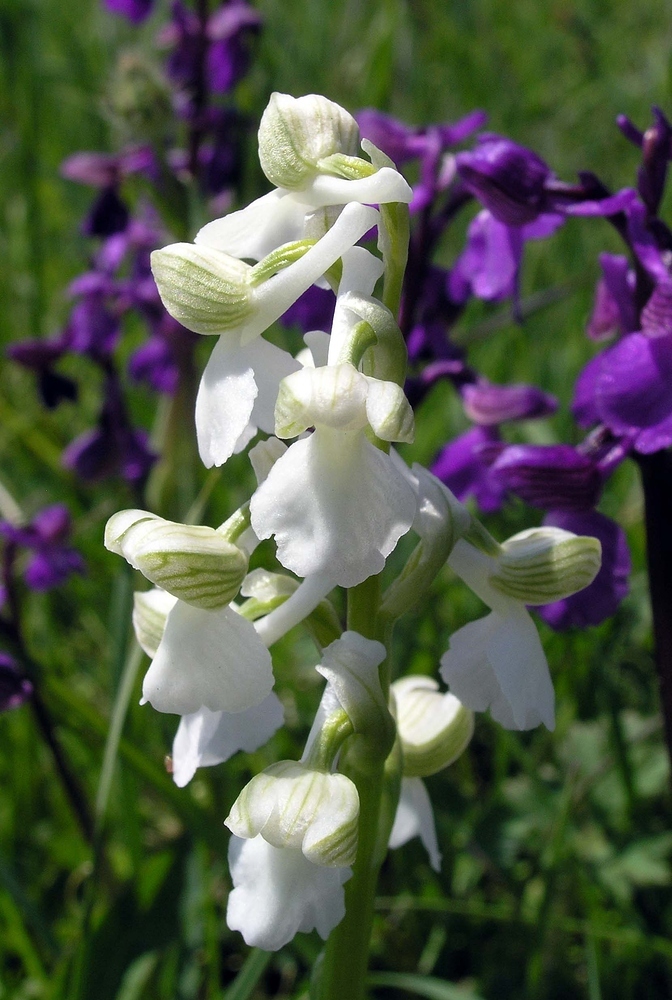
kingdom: Plantae
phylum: Tracheophyta
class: Liliopsida
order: Asparagales
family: Orchidaceae
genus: Anacamptis
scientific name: Anacamptis morio
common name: Green-winged orchid
